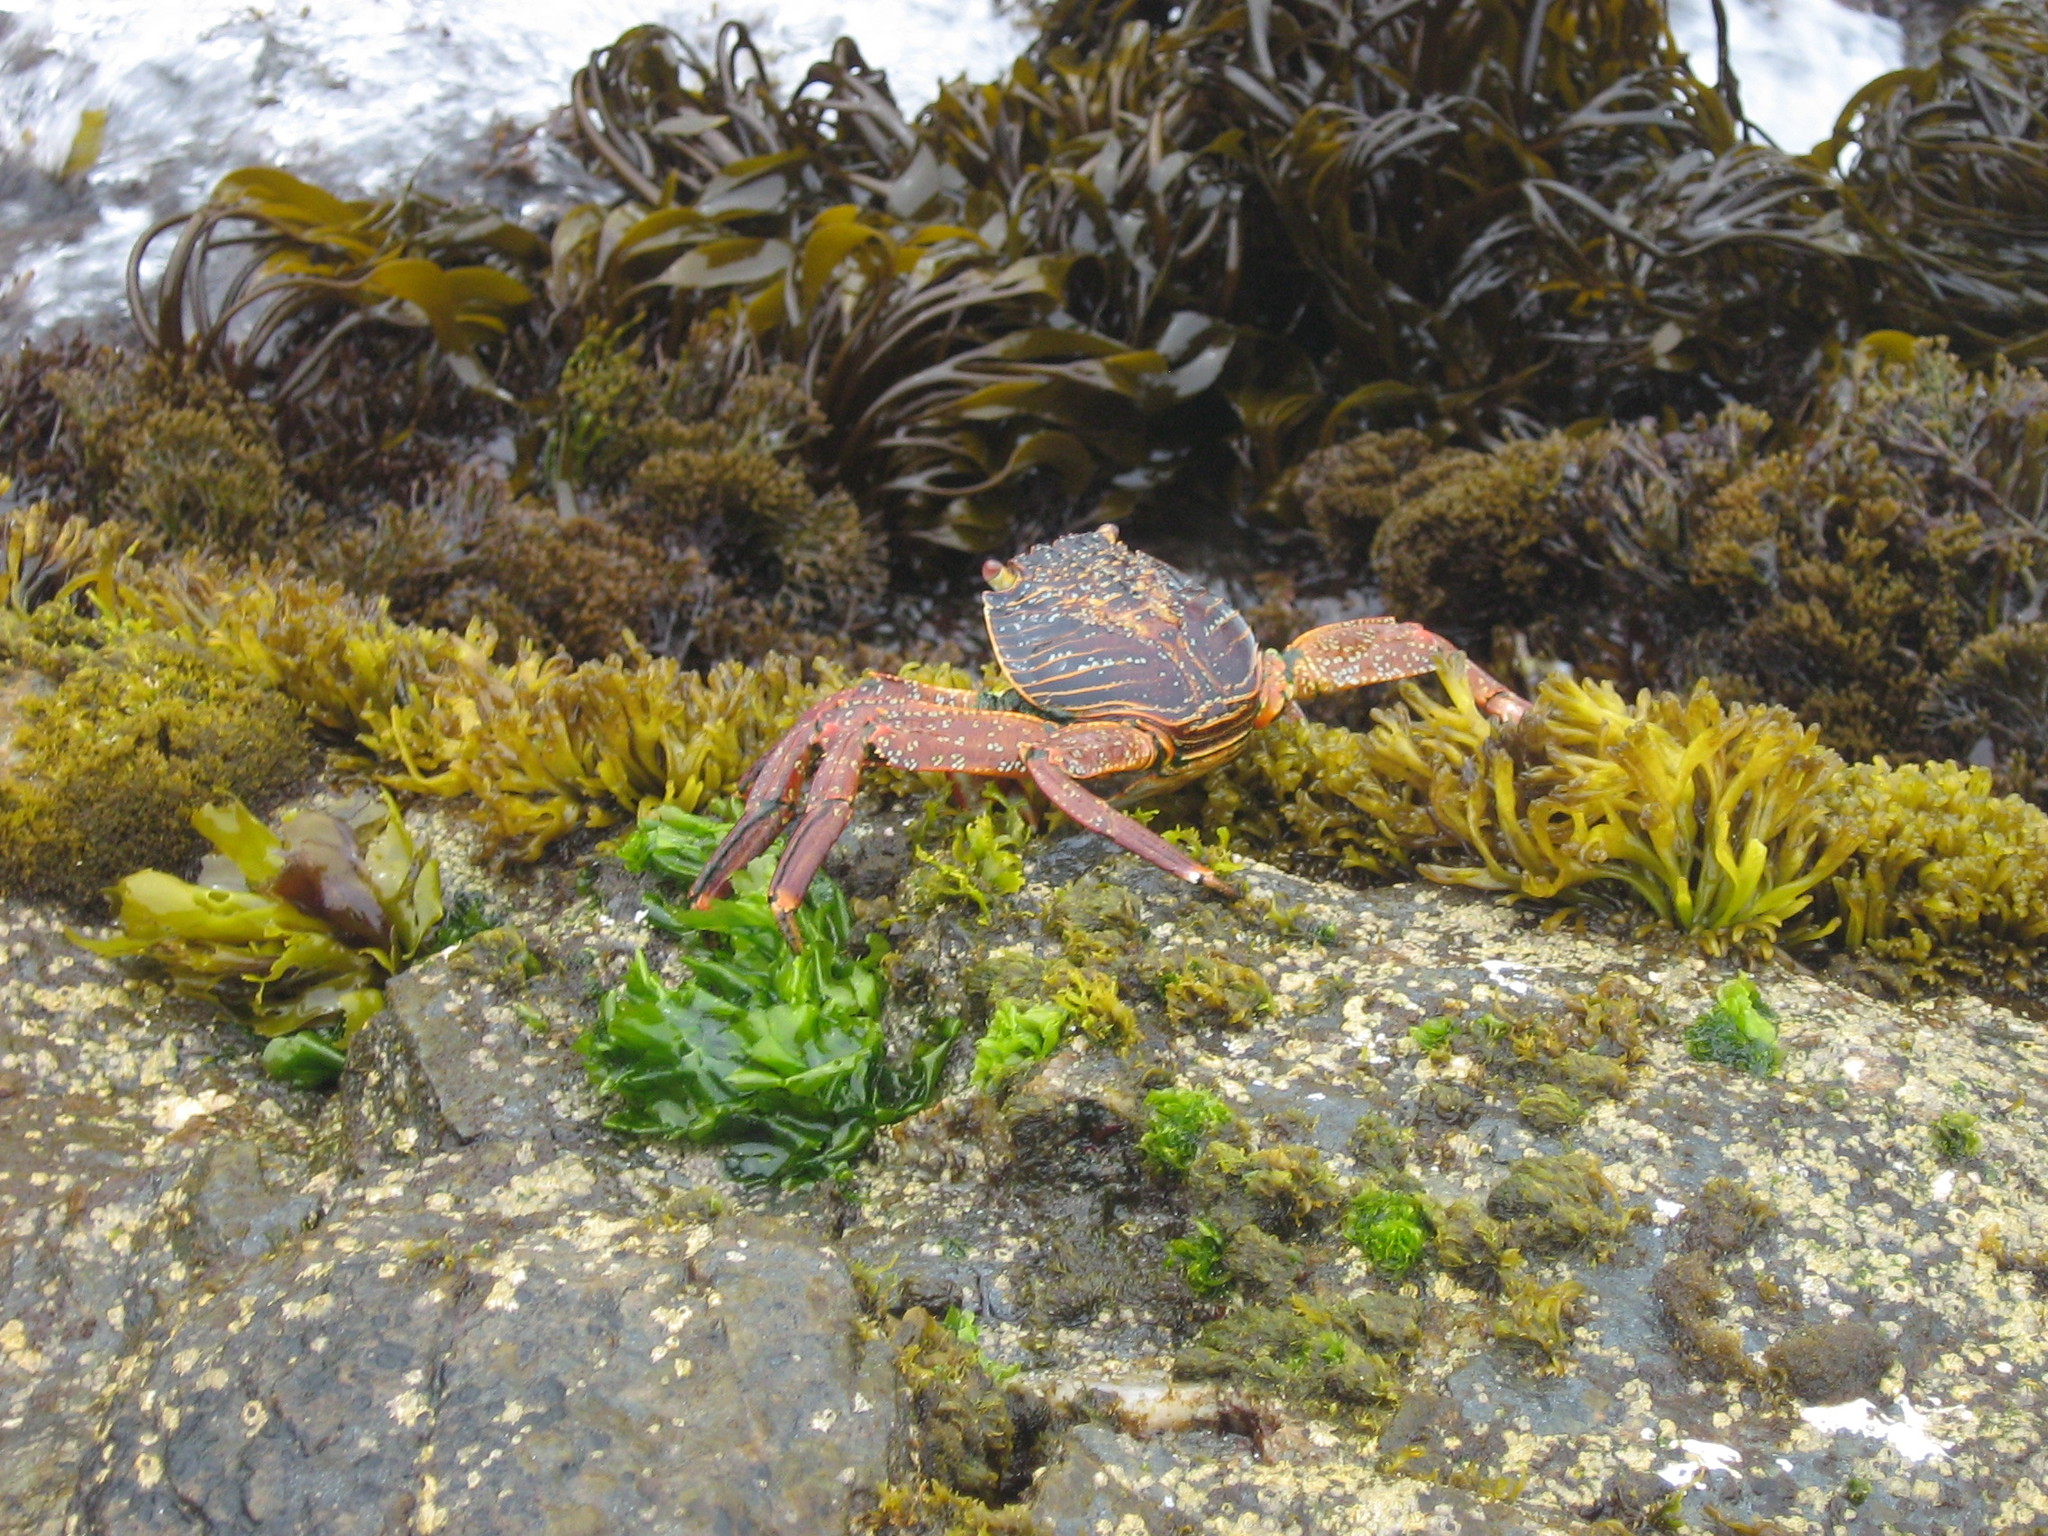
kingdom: Animalia
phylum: Arthropoda
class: Malacostraca
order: Decapoda
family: Grapsidae
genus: Grapsus
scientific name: Grapsus grapsus
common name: Sally lightfoot
